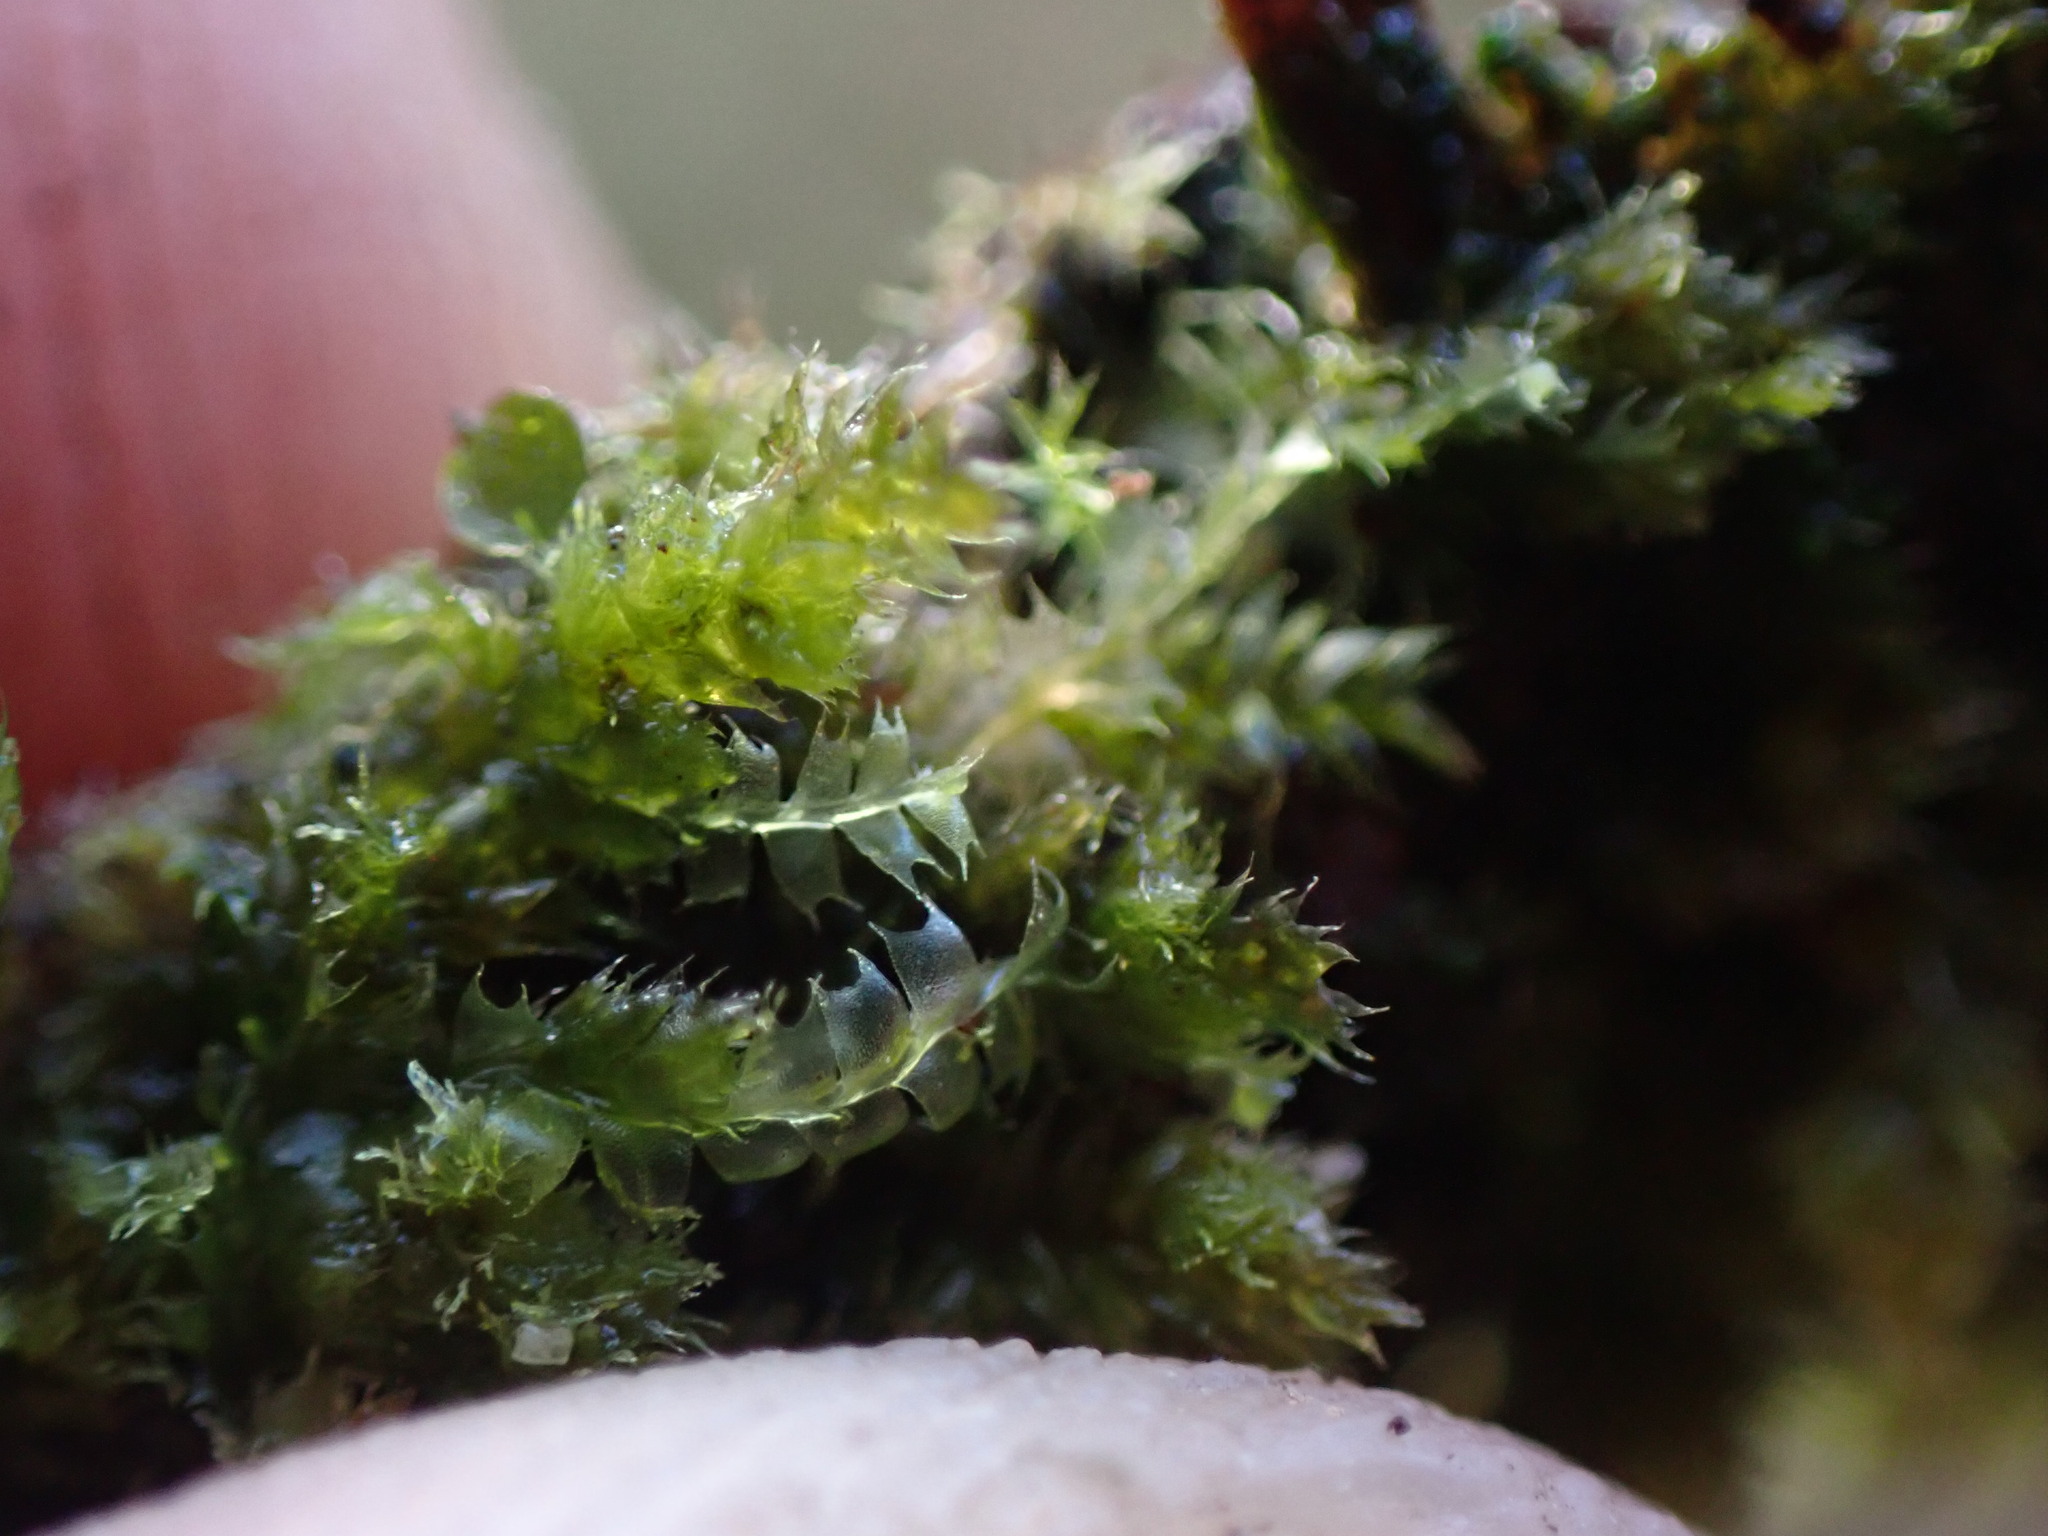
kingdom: Plantae
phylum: Marchantiophyta
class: Jungermanniopsida
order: Jungermanniales
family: Lophocoleaceae
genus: Lophocolea
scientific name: Lophocolea bidentata
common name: Bifid crestwort
